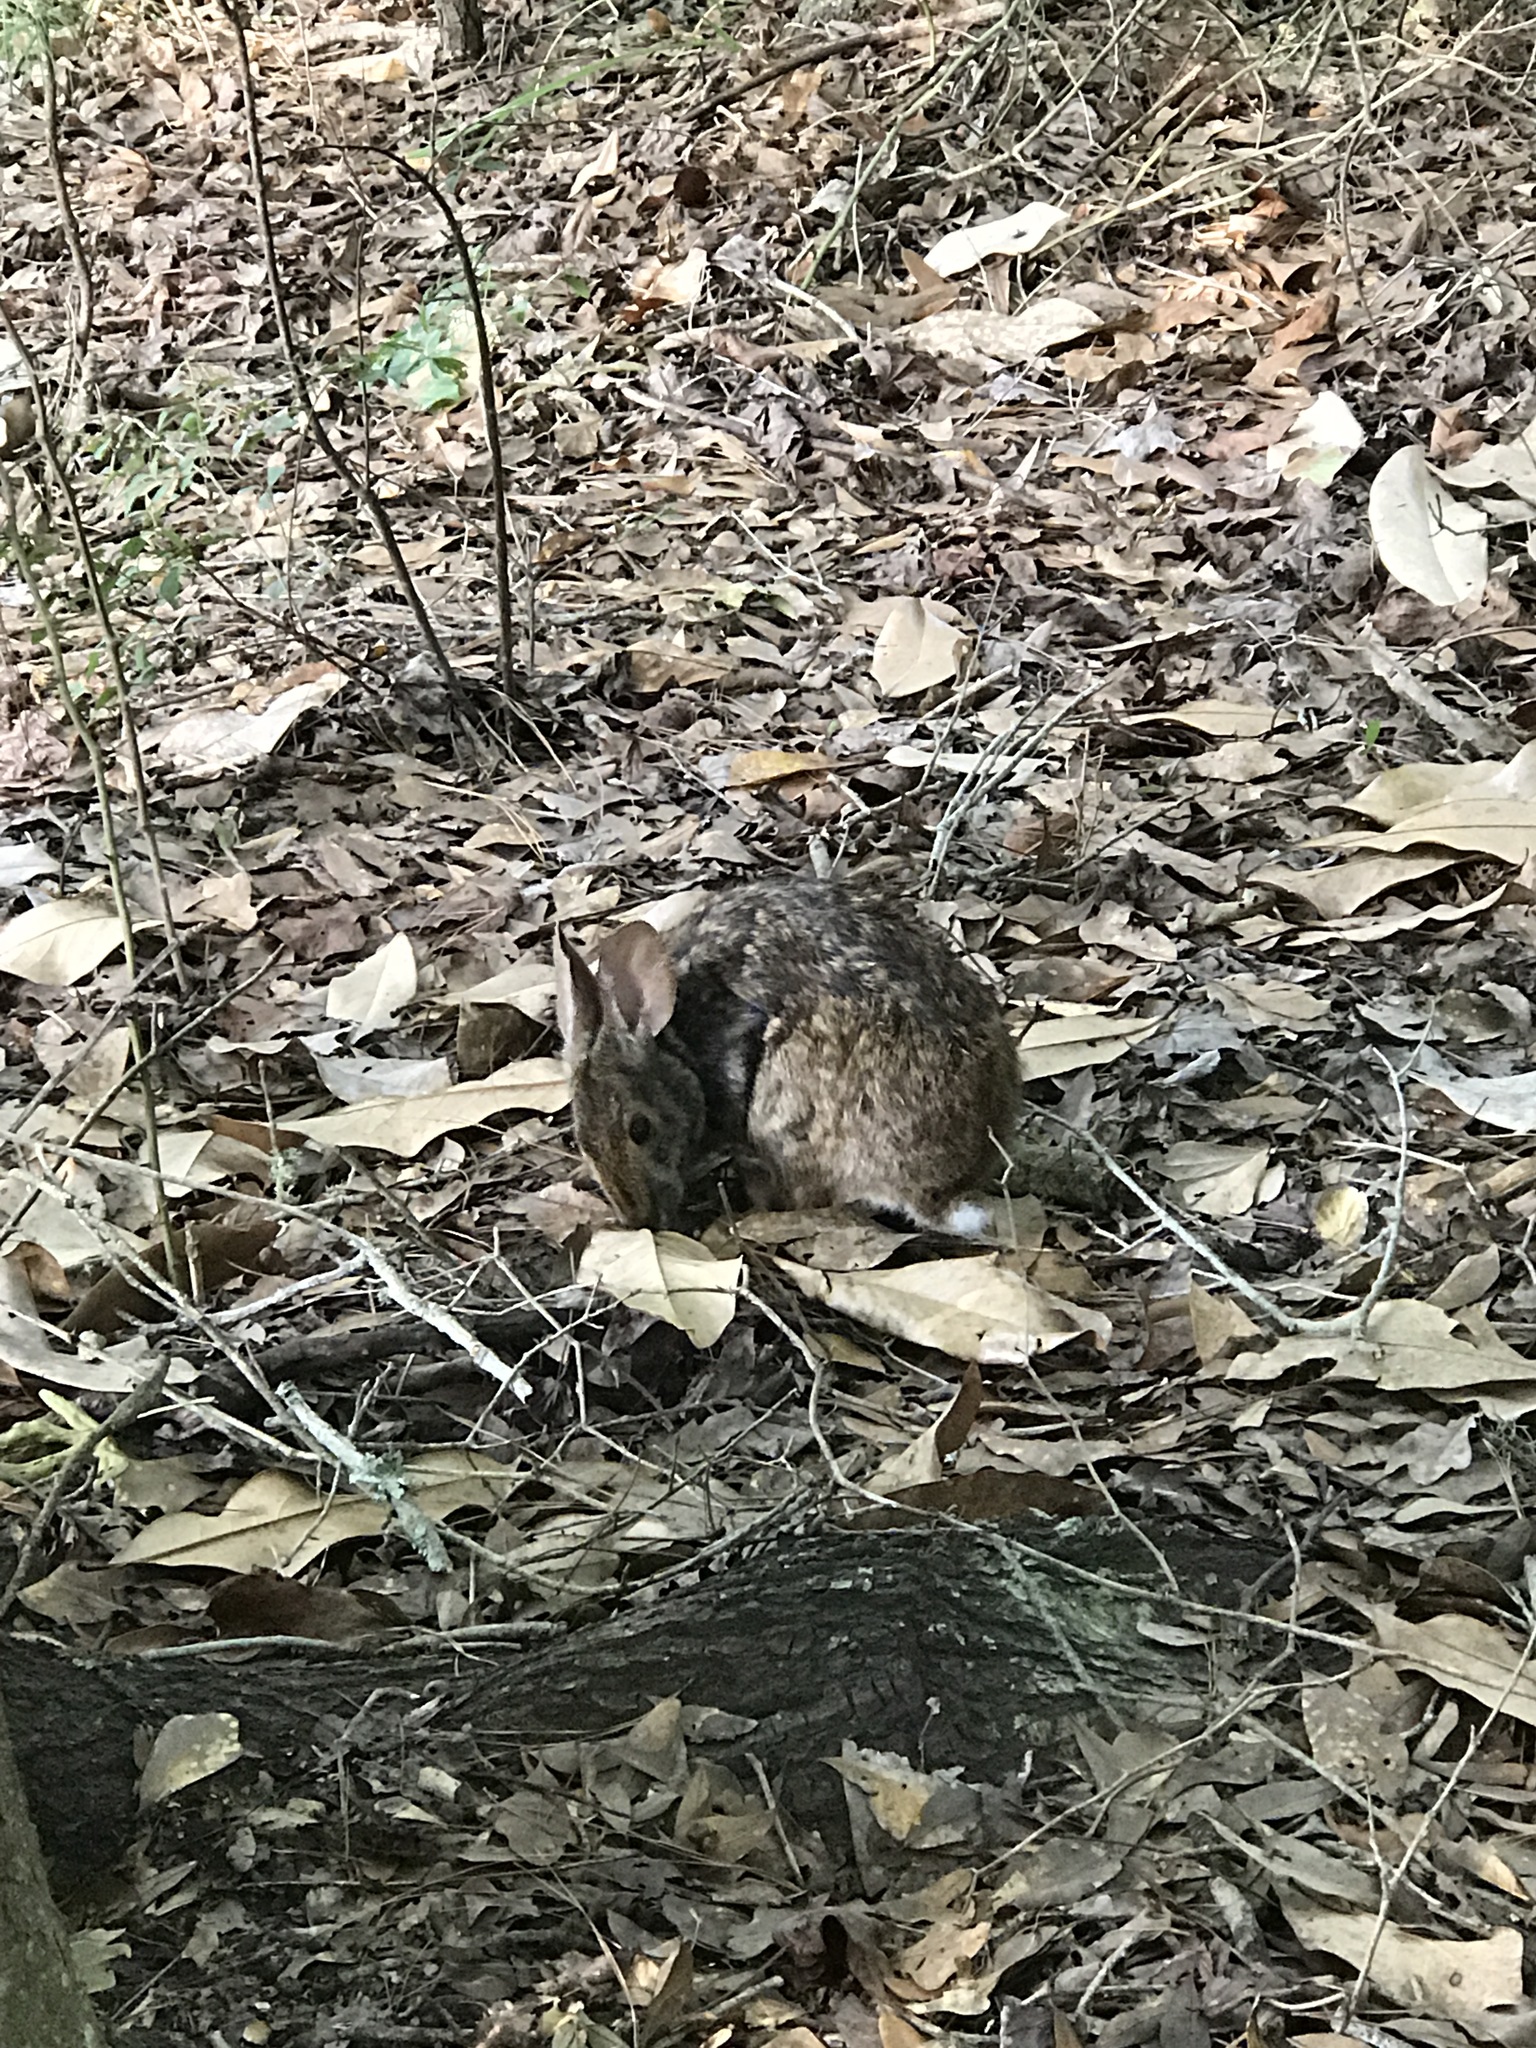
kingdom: Animalia
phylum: Chordata
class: Mammalia
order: Lagomorpha
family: Leporidae
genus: Sylvilagus
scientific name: Sylvilagus aquaticus
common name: Swamp rabbit
